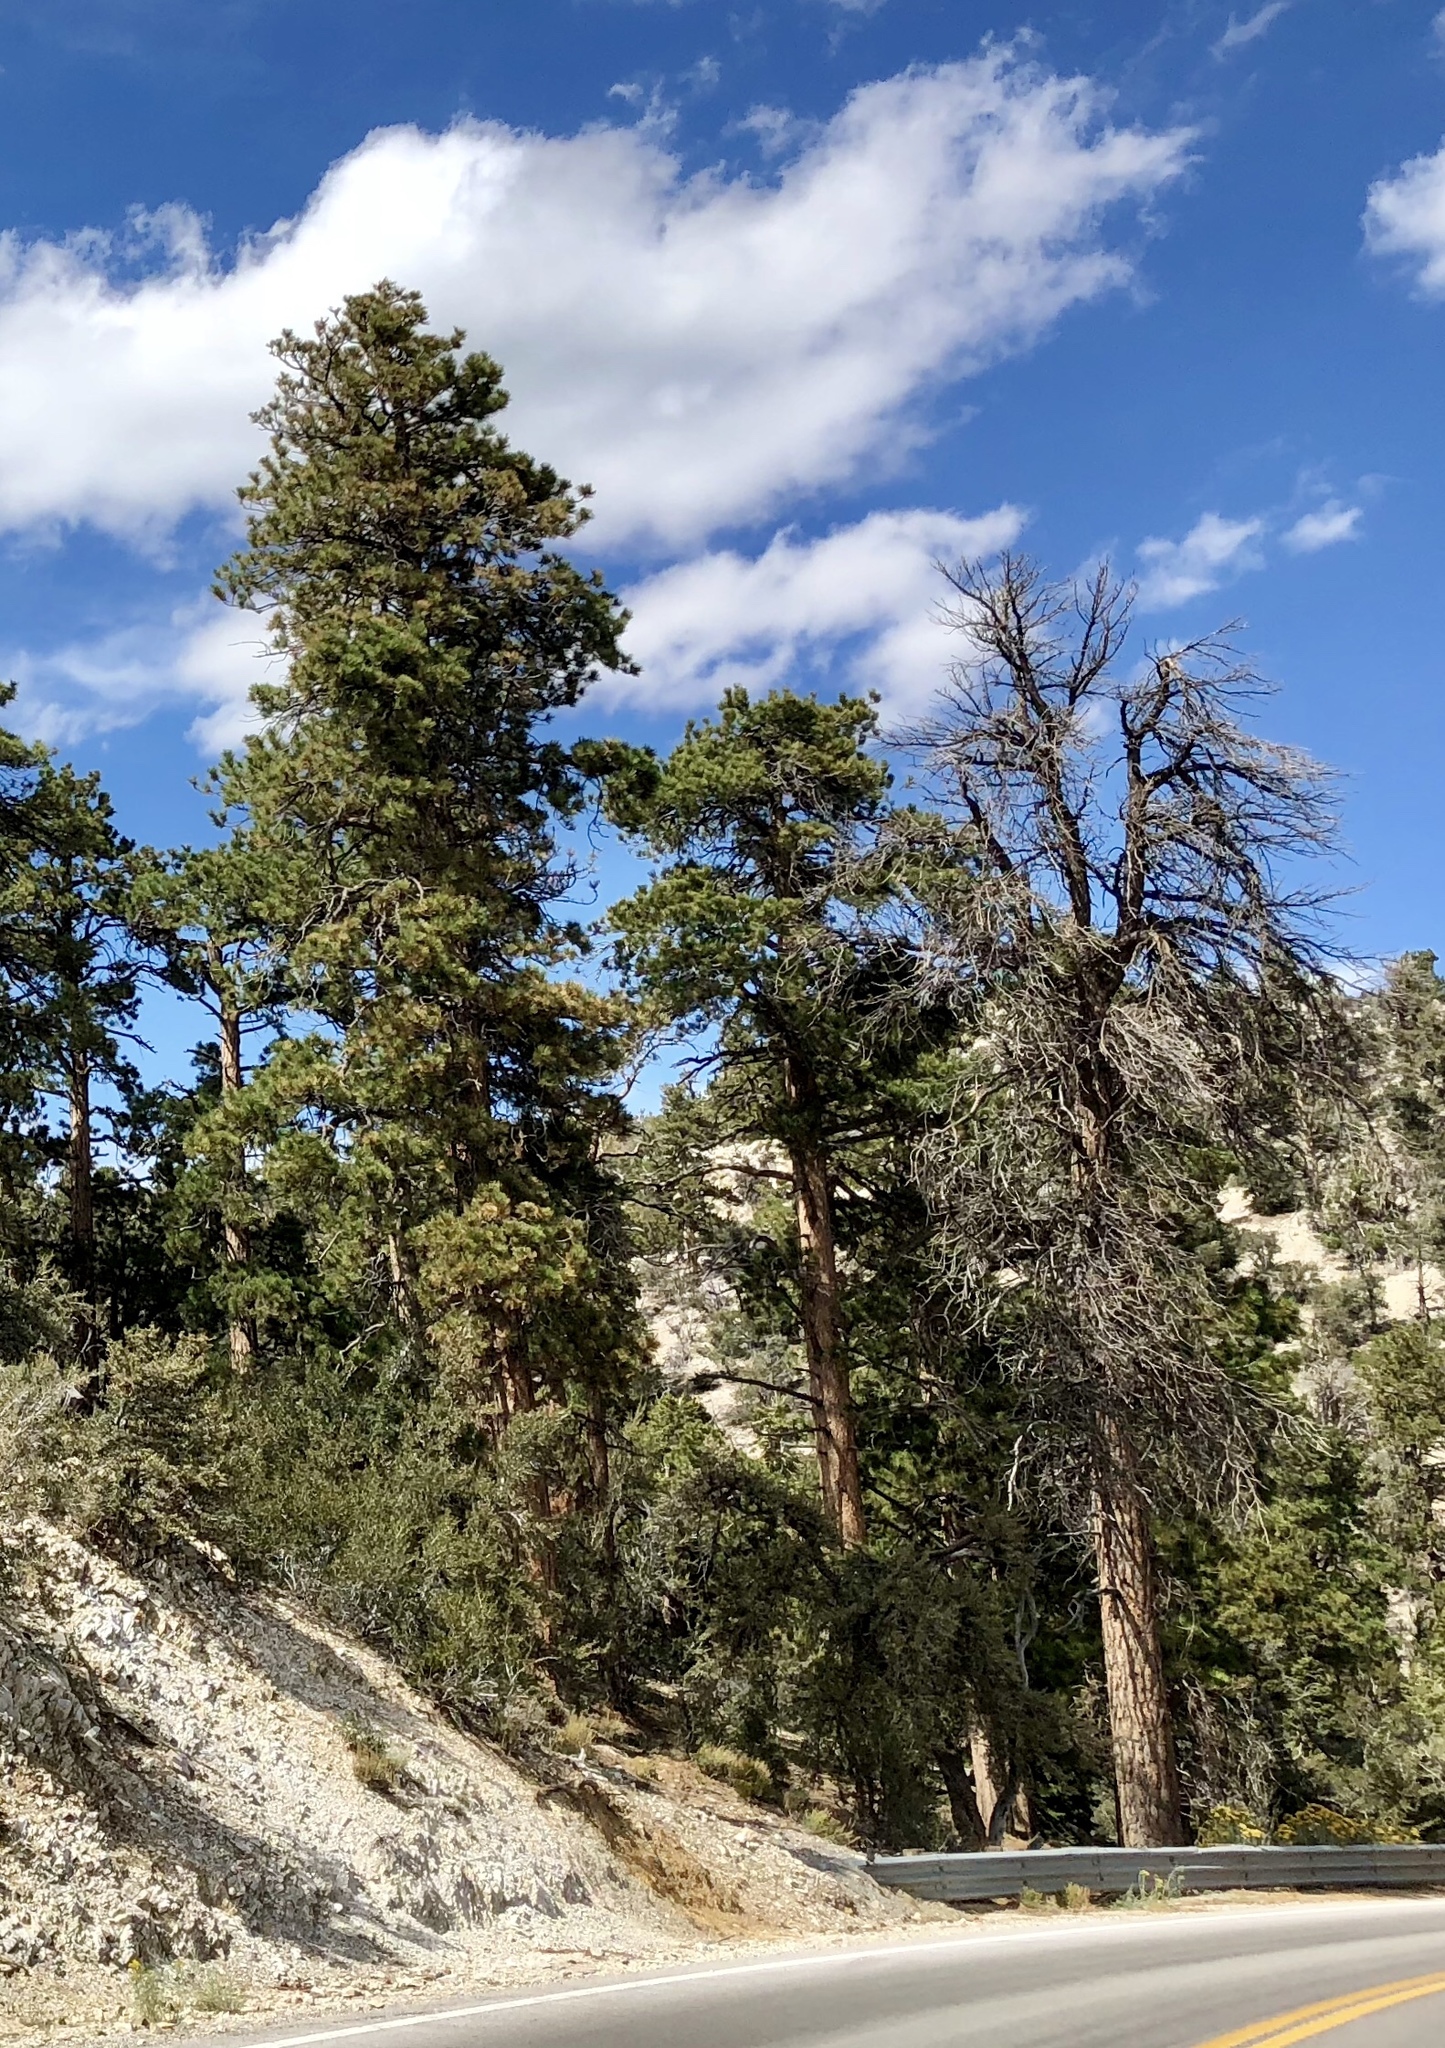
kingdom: Plantae
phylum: Tracheophyta
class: Pinopsida
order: Pinales
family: Pinaceae
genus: Pinus
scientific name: Pinus ponderosa
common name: Western yellow-pine
